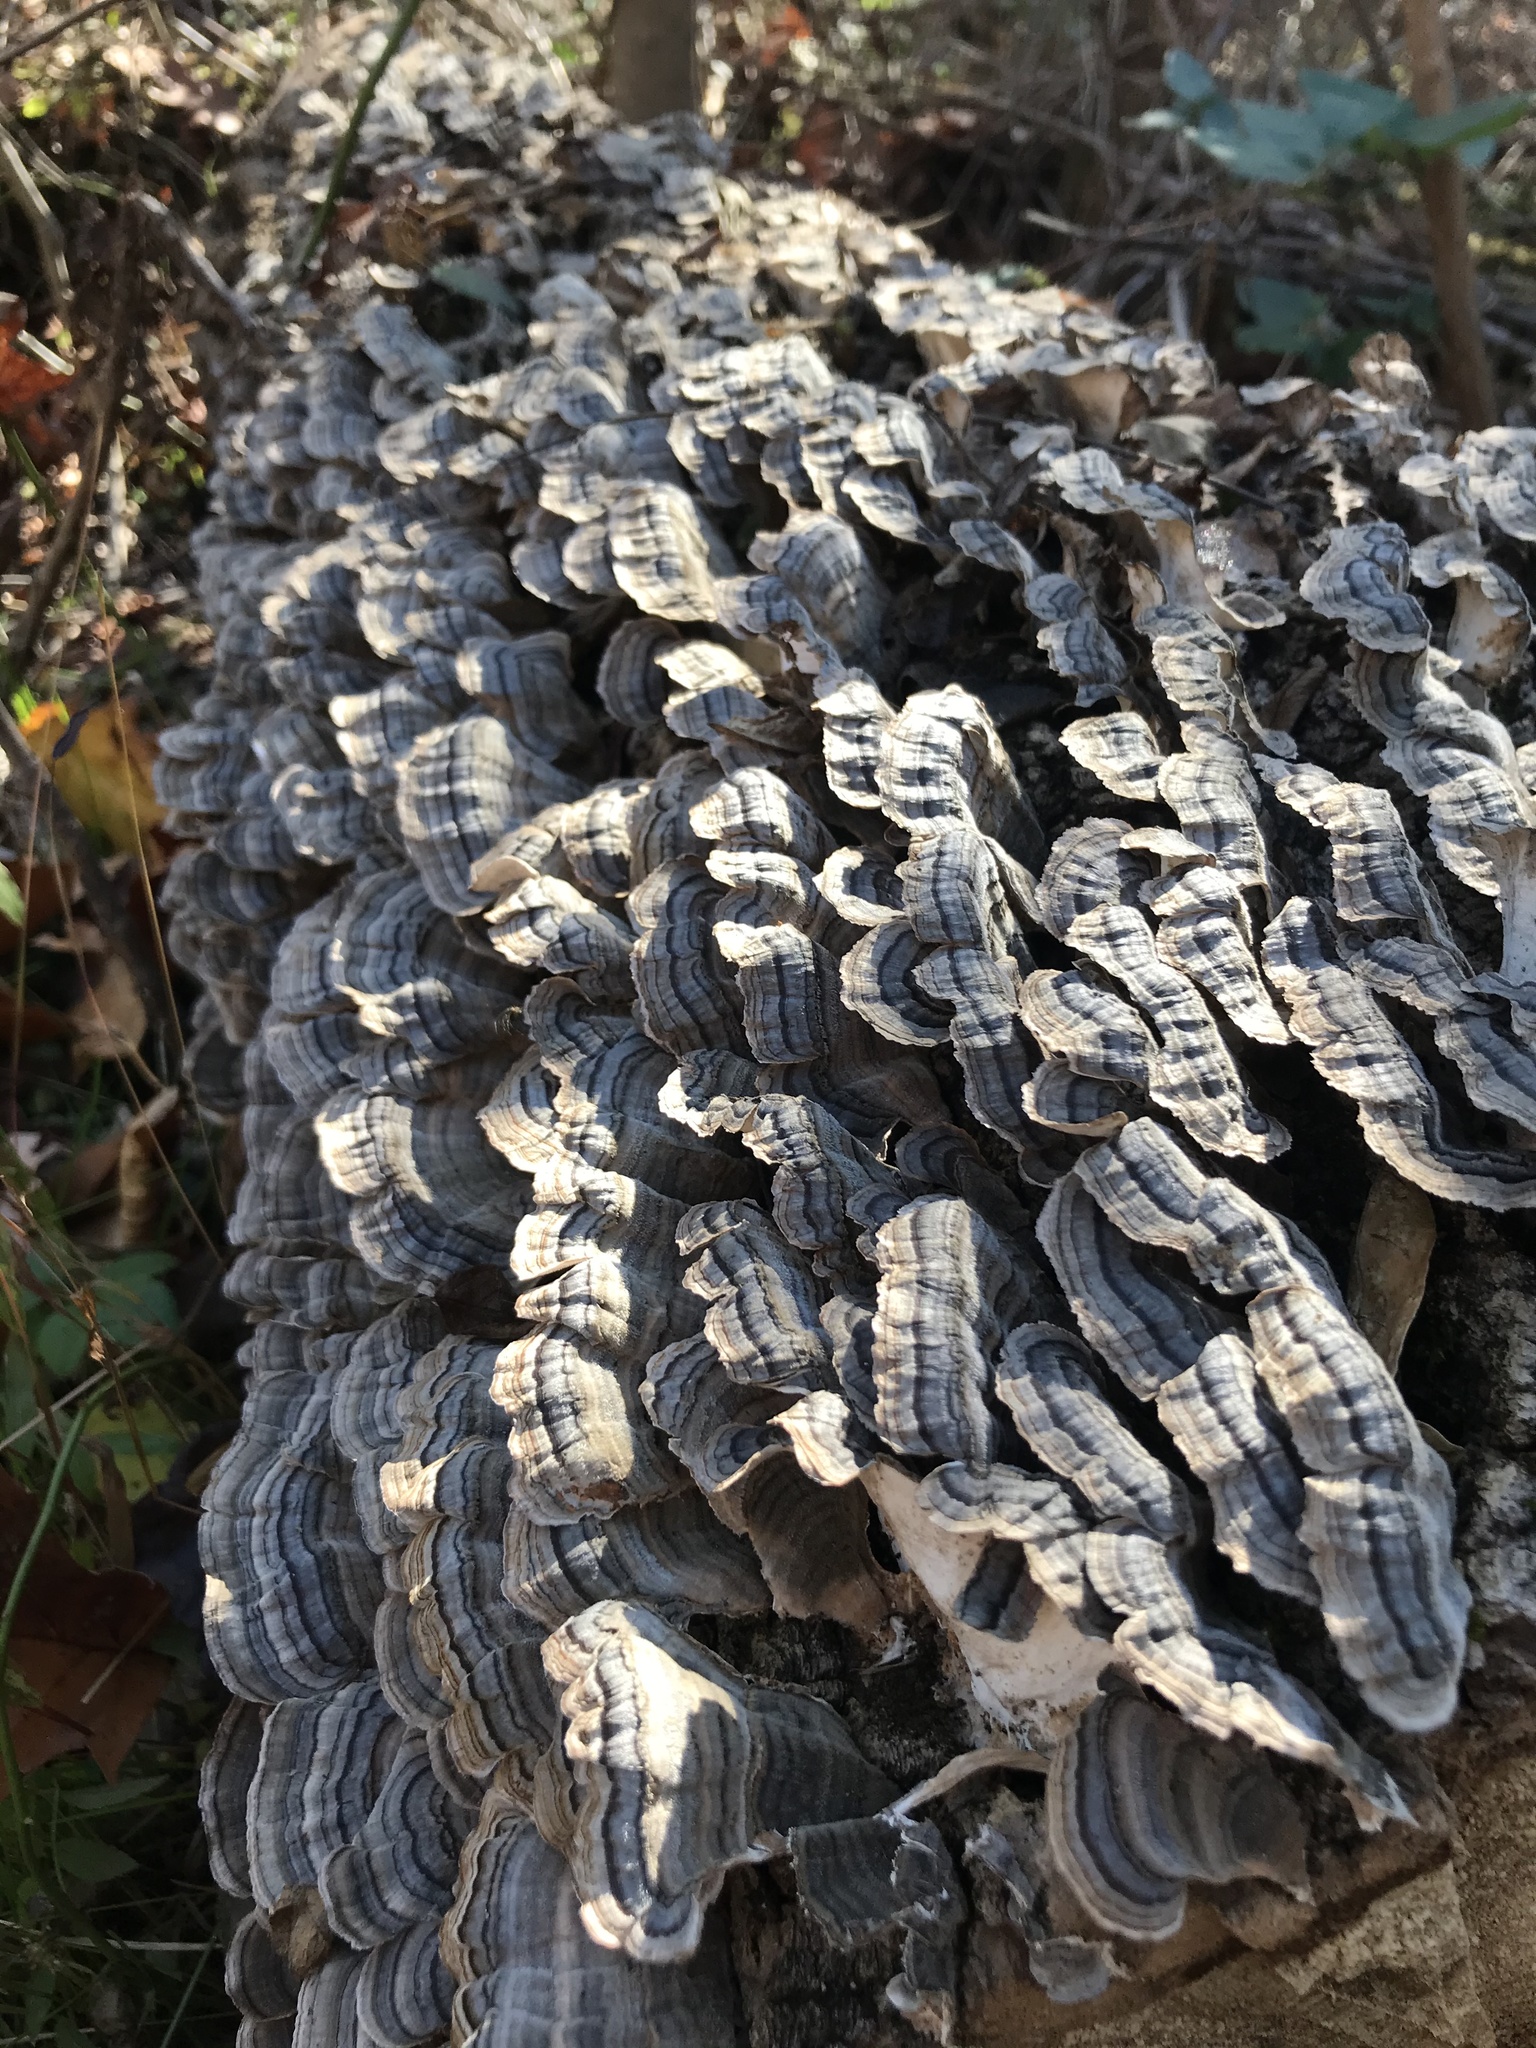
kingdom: Fungi
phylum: Basidiomycota
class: Agaricomycetes
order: Polyporales
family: Polyporaceae
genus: Trametes
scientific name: Trametes versicolor
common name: Turkeytail
